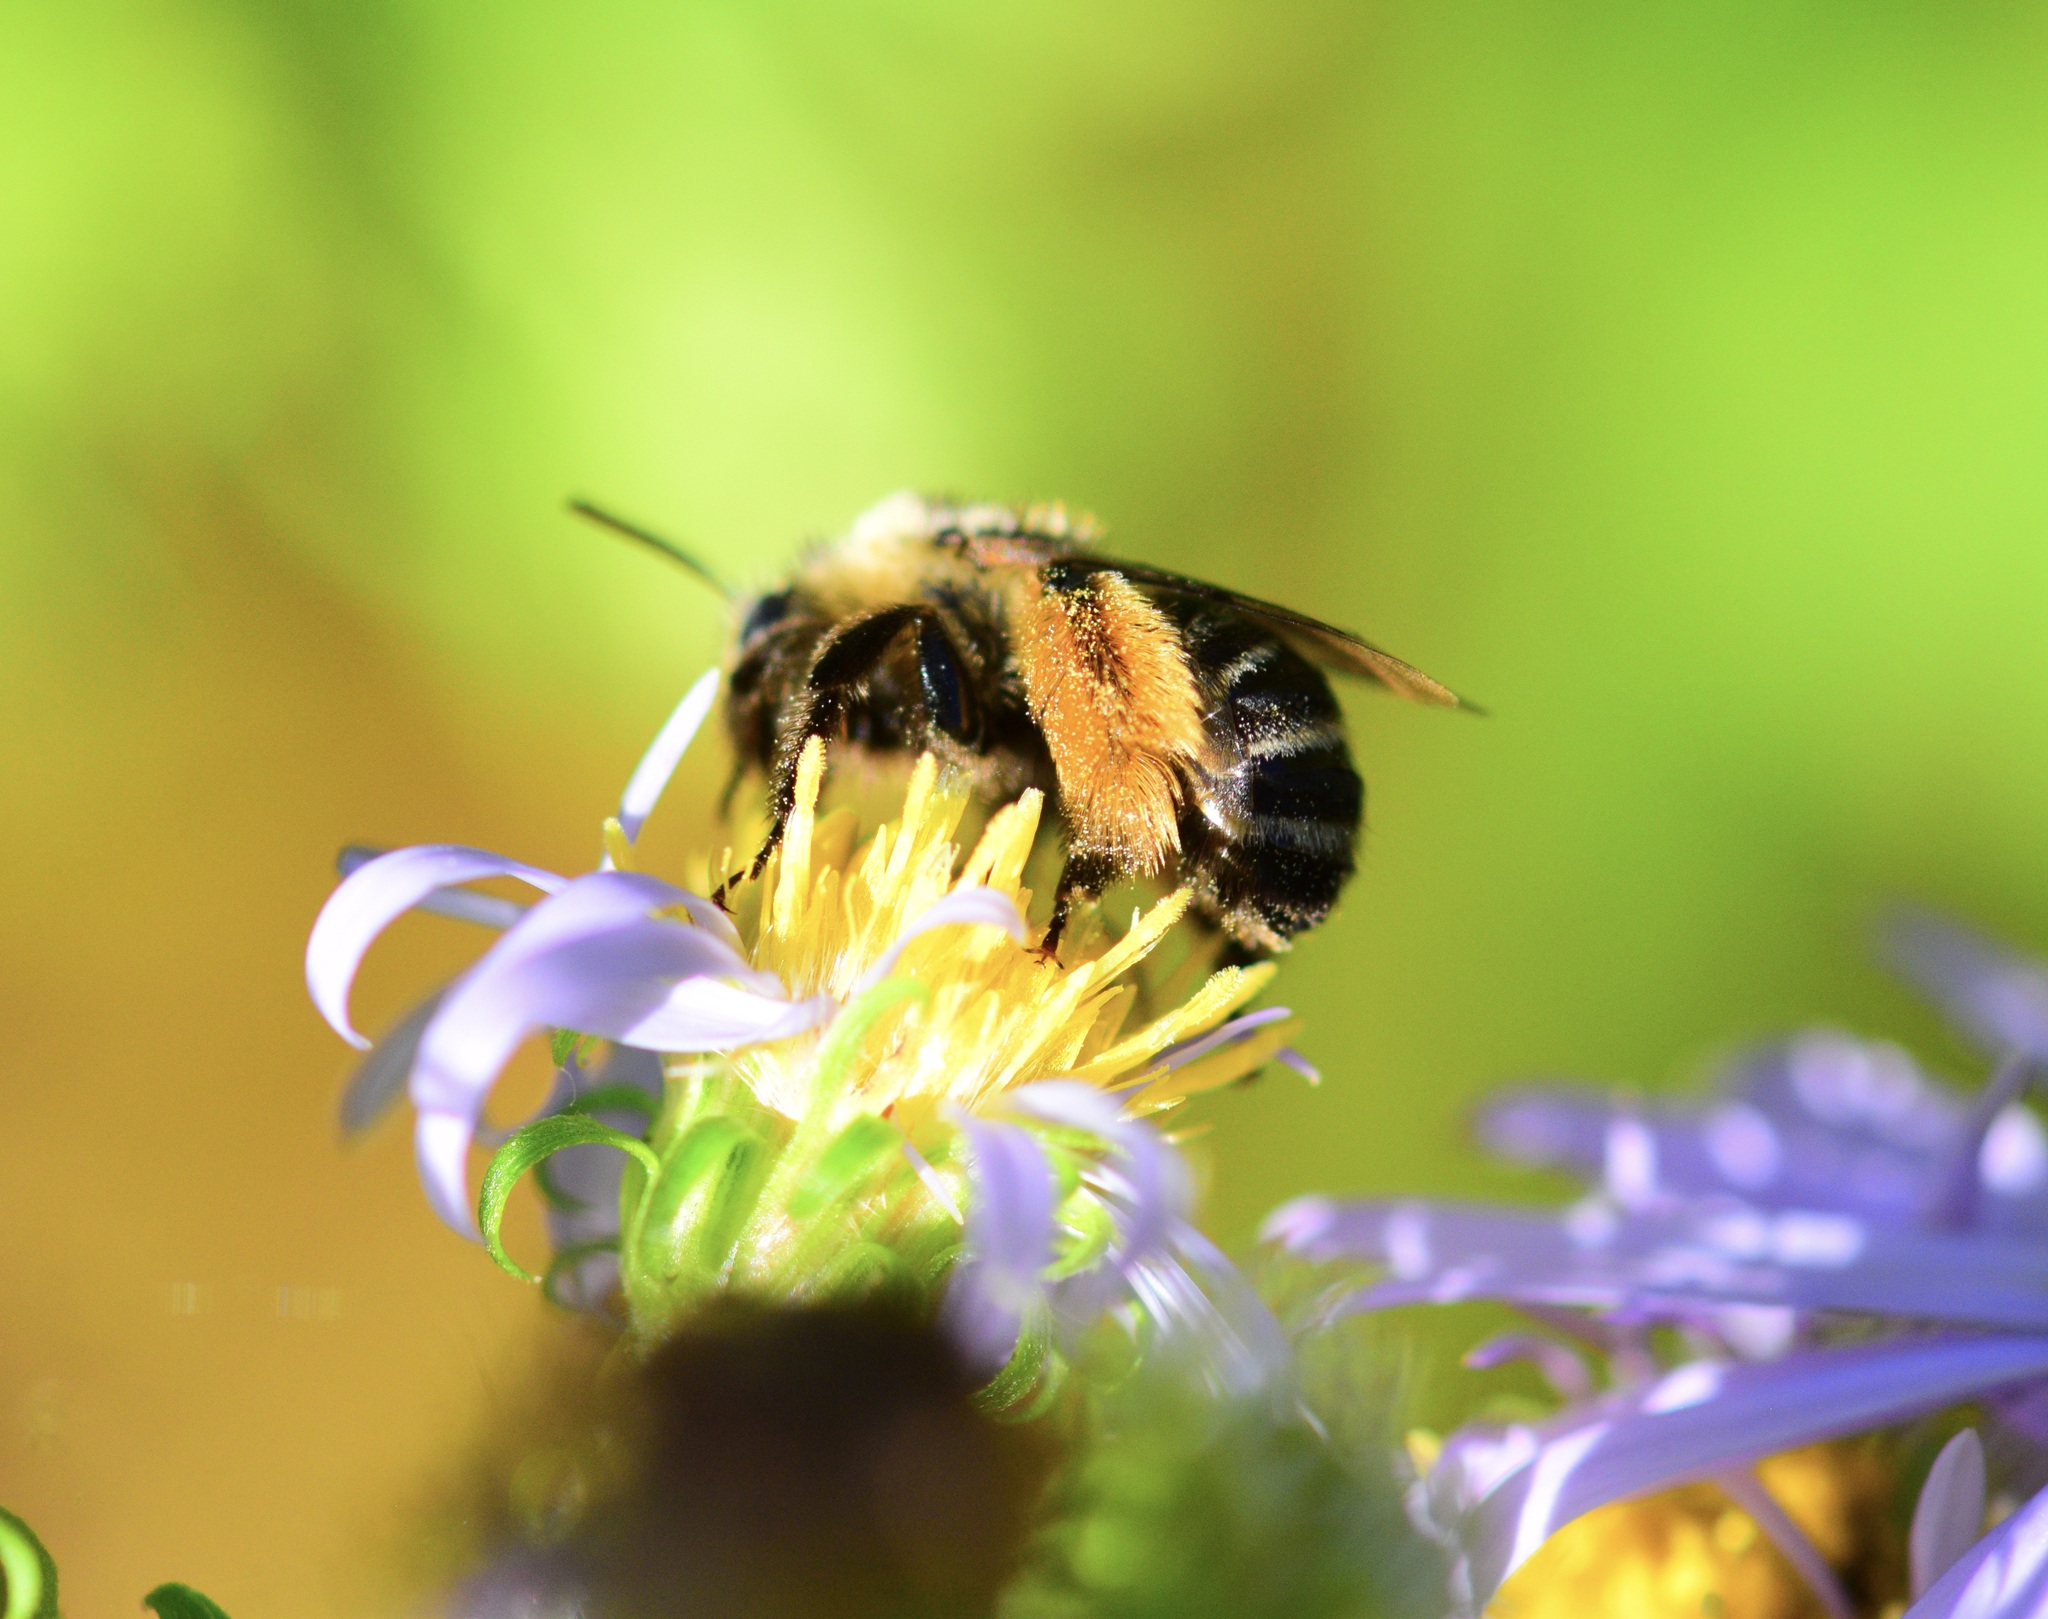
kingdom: Animalia
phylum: Arthropoda
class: Insecta
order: Hymenoptera
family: Apidae
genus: Melissodes
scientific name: Melissodes druriellus
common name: Drury's long-horned bee
